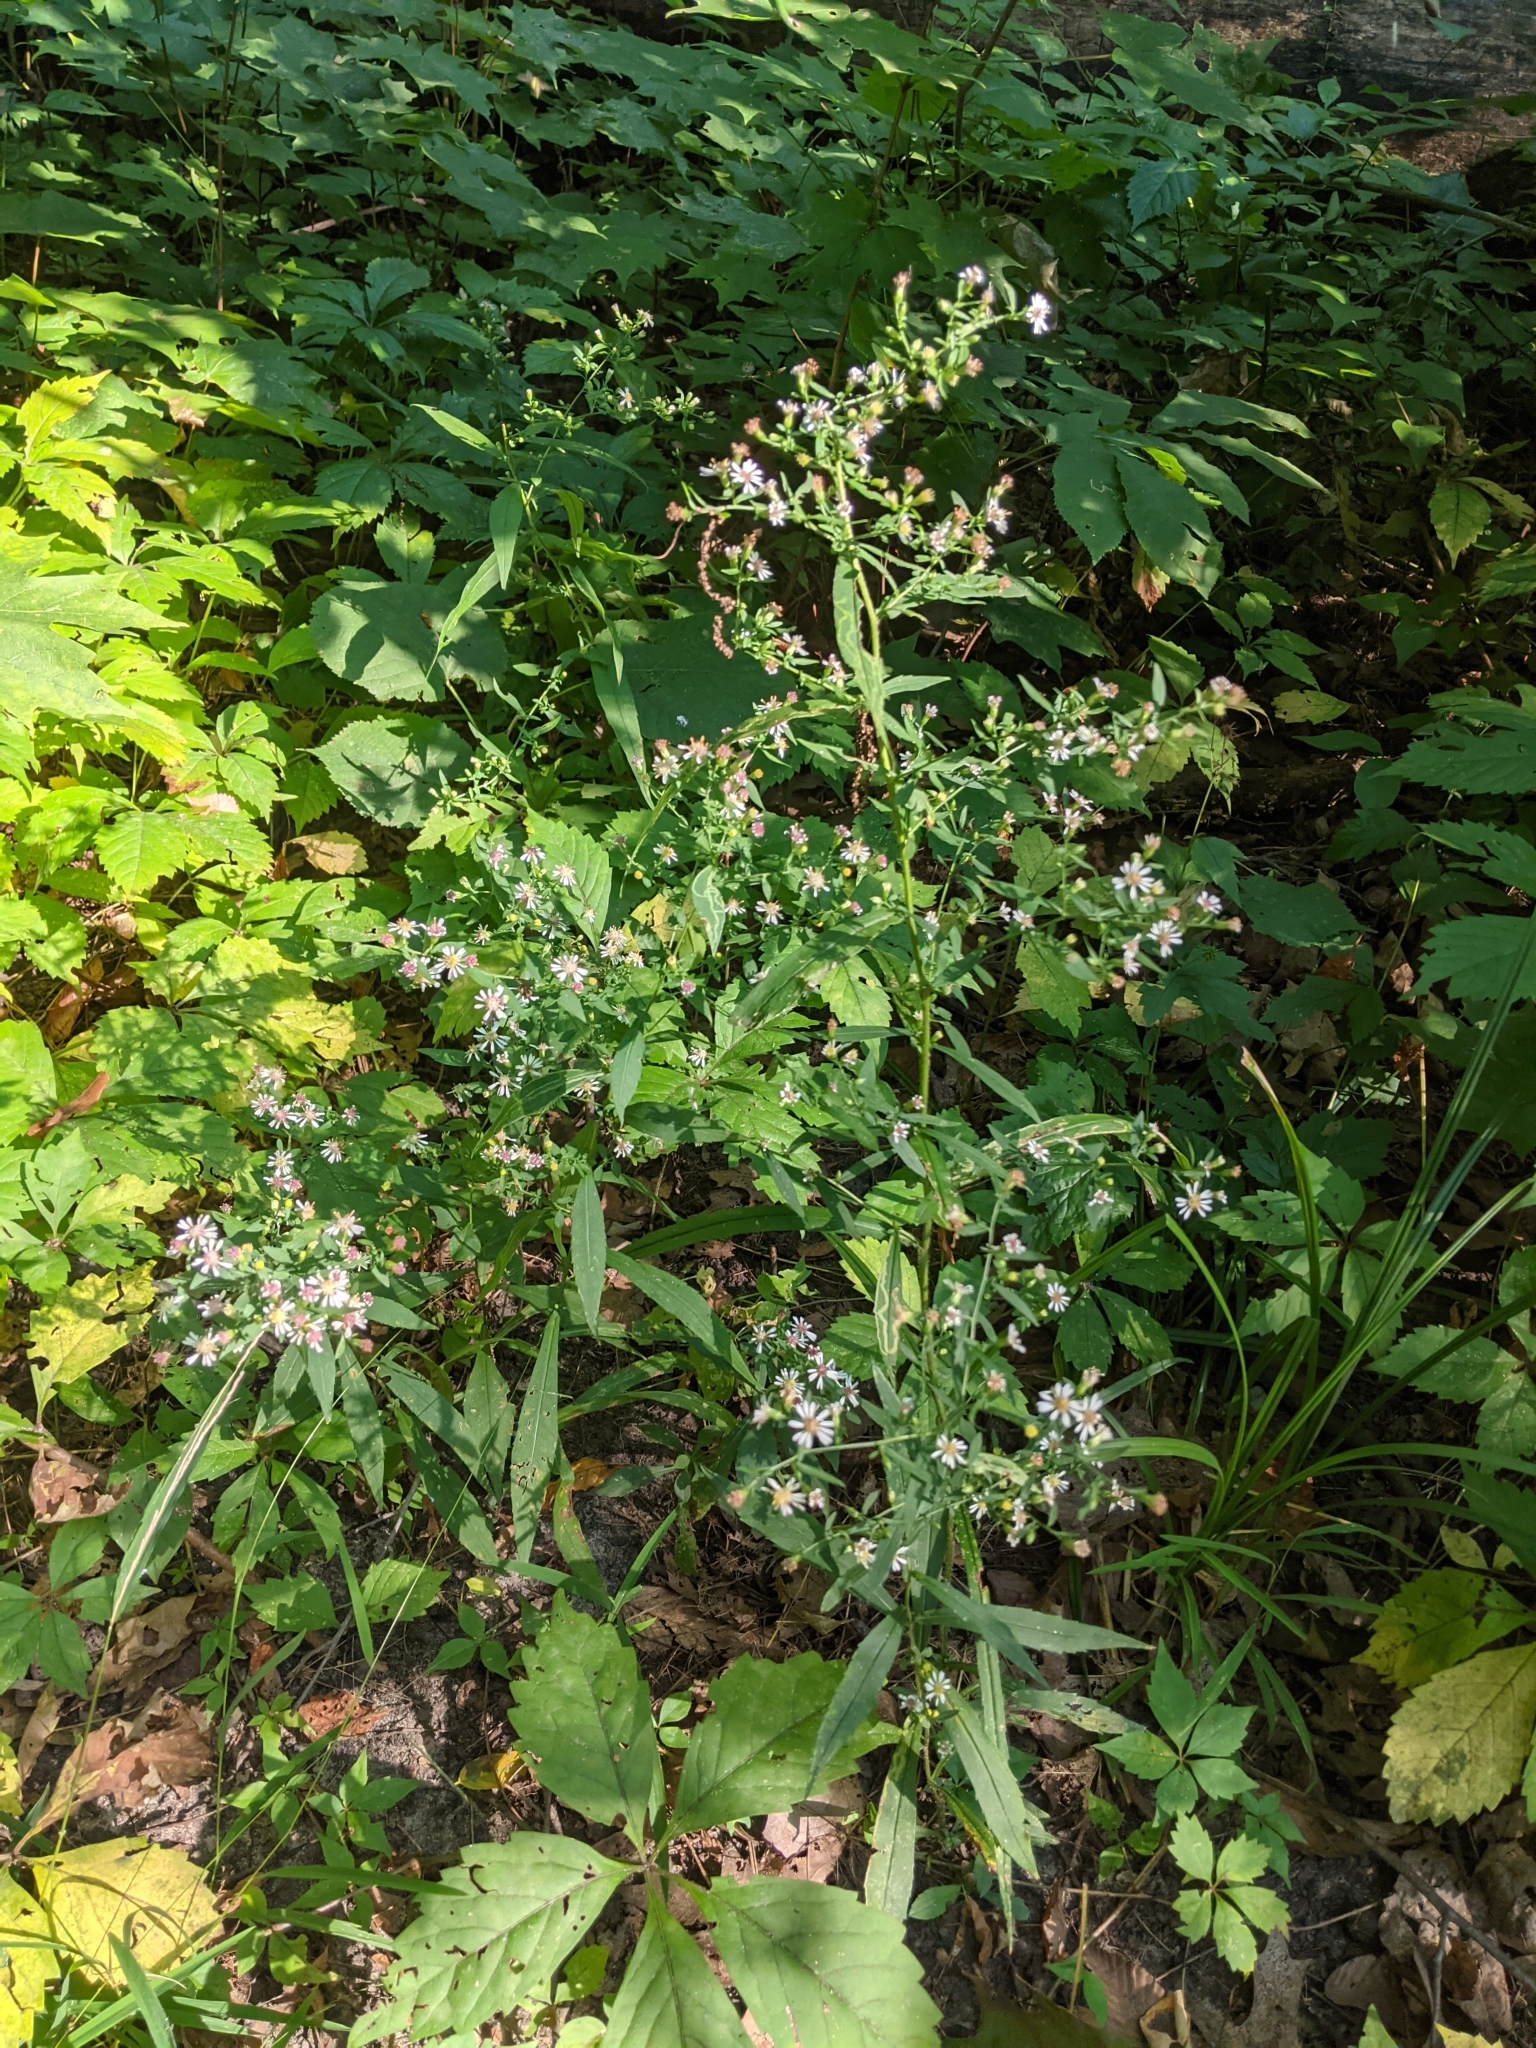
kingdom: Plantae
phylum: Tracheophyta
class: Magnoliopsida
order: Asterales
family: Asteraceae
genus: Symphyotrichum
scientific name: Symphyotrichum lateriflorum
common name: Calico aster
